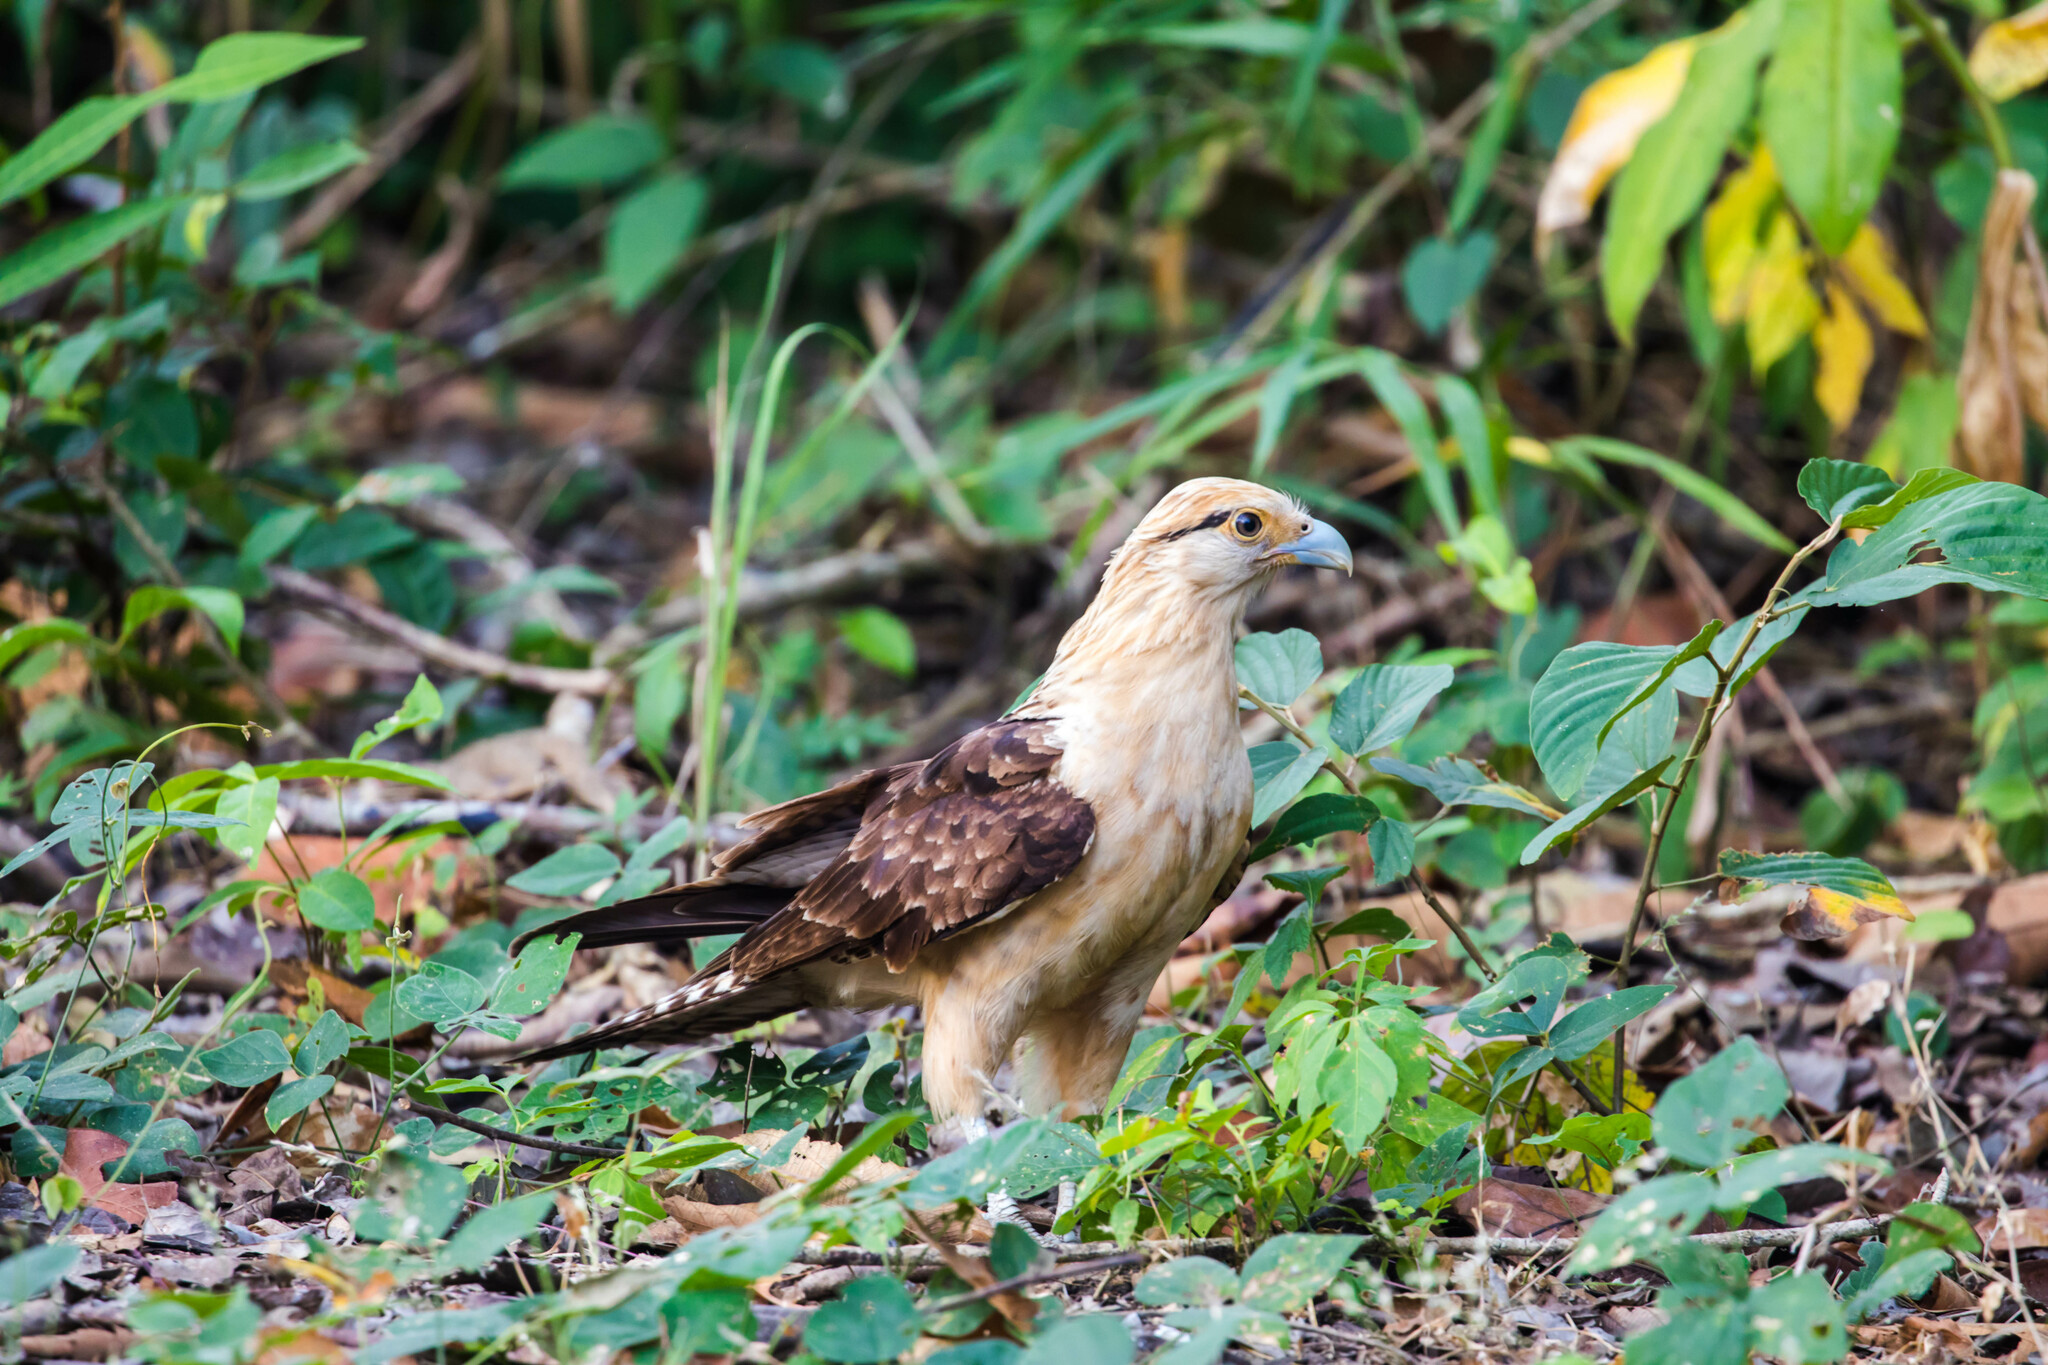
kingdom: Animalia
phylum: Chordata
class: Aves
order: Falconiformes
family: Falconidae
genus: Daptrius
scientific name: Daptrius
